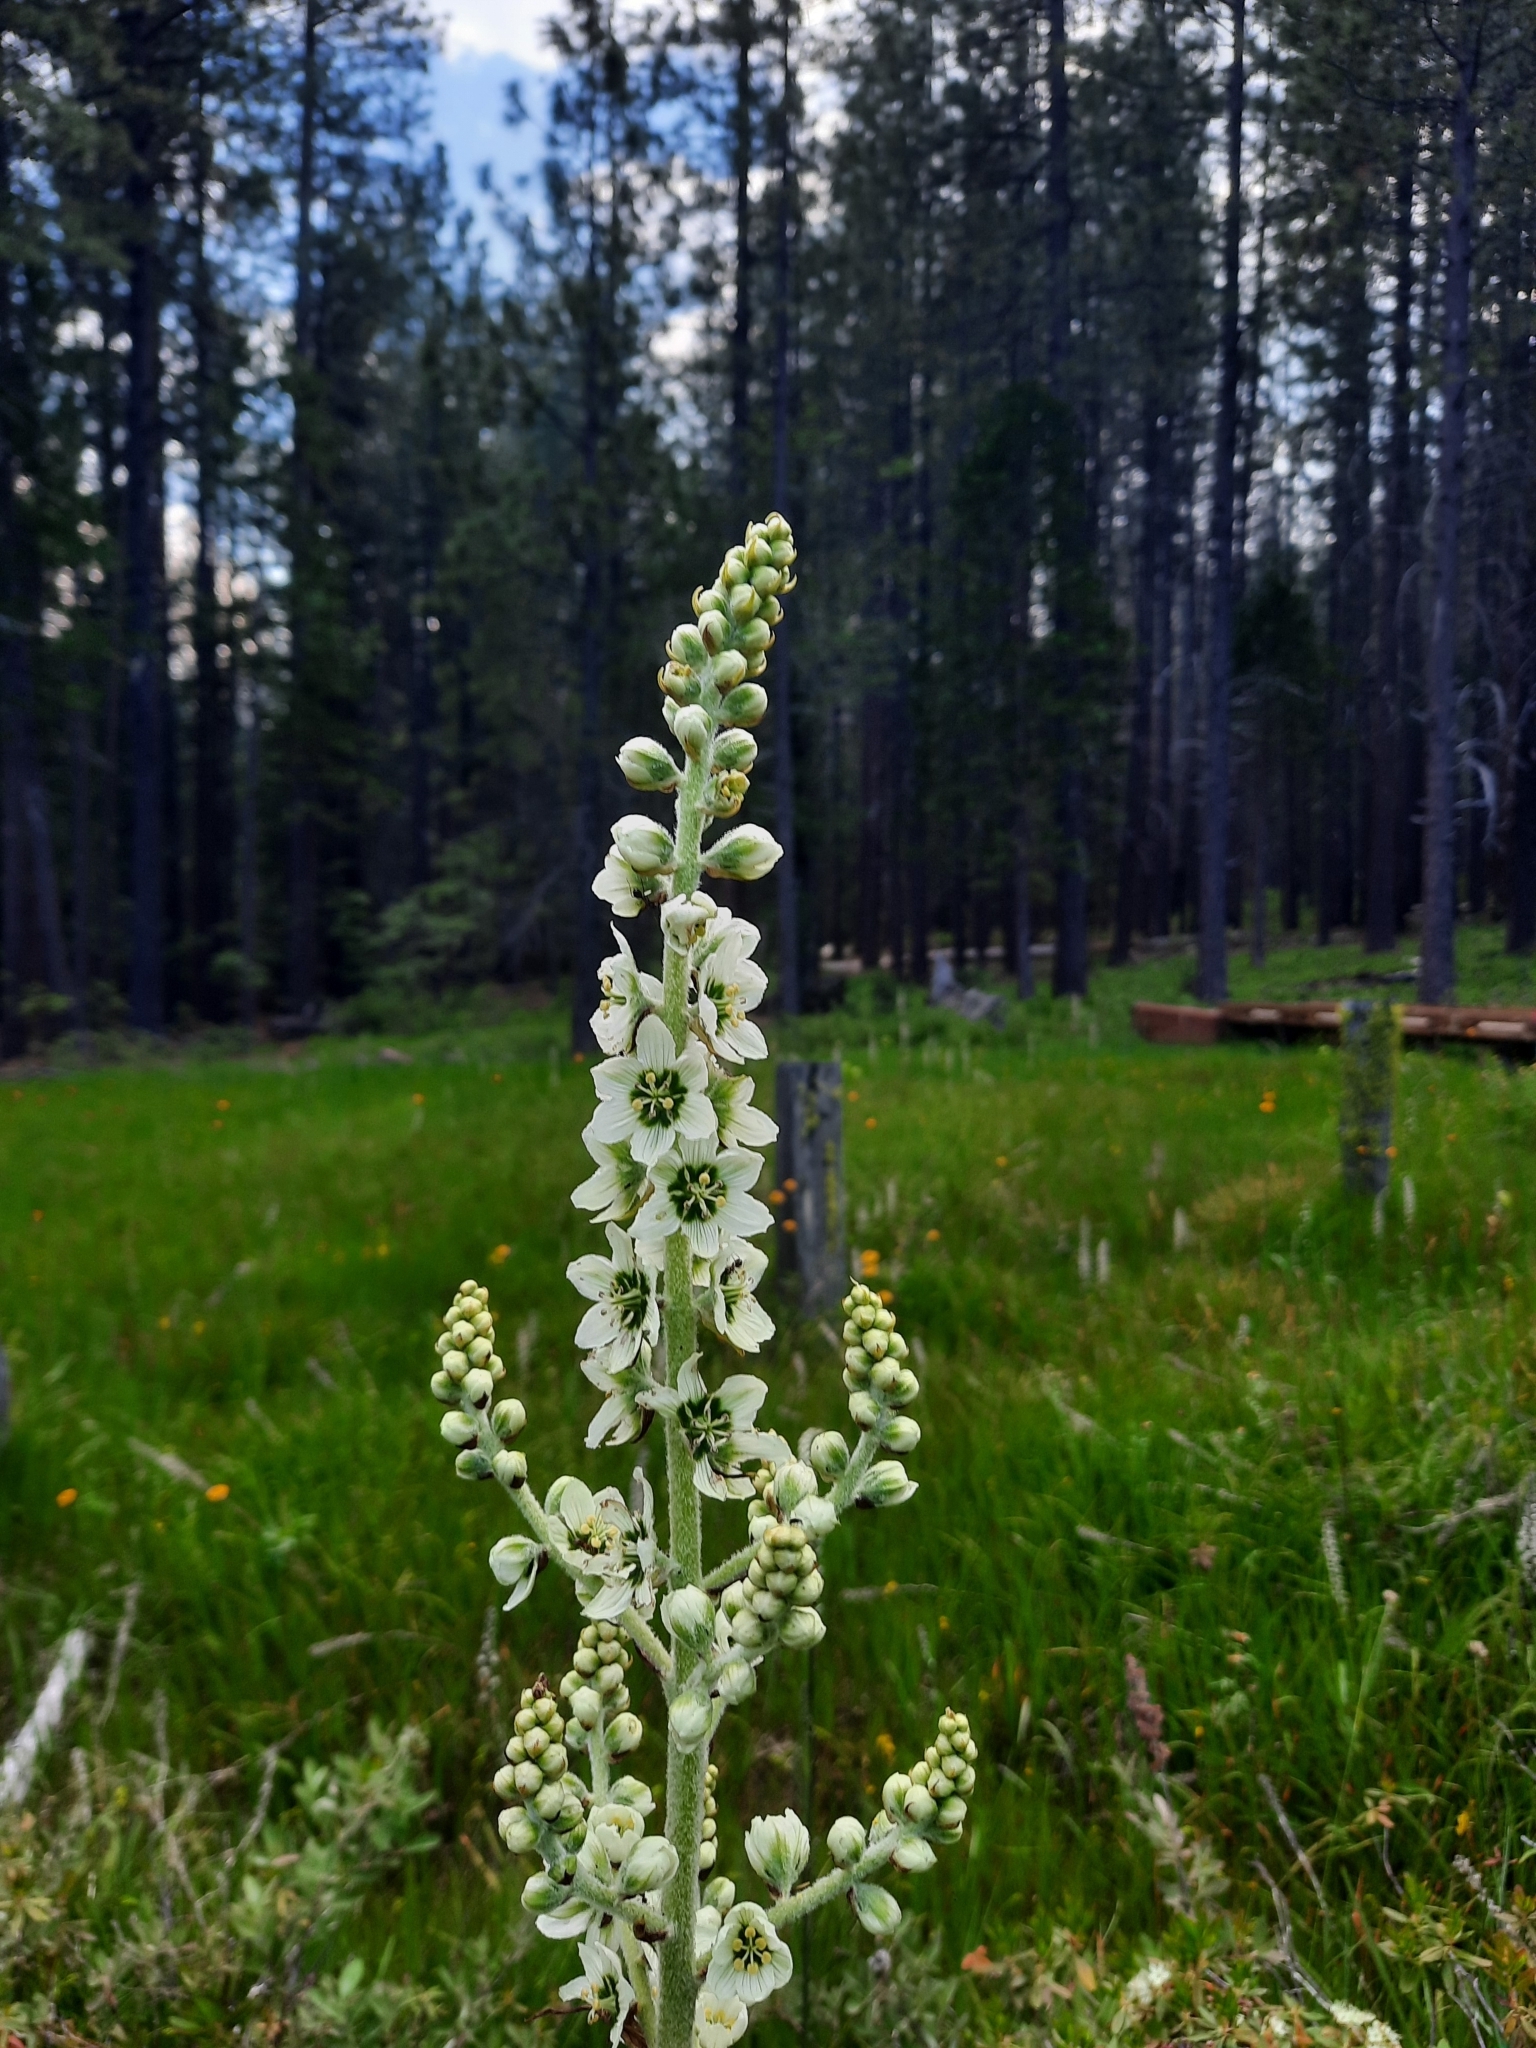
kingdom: Plantae
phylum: Tracheophyta
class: Liliopsida
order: Liliales
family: Melanthiaceae
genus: Veratrum
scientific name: Veratrum californicum
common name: California veratrum
